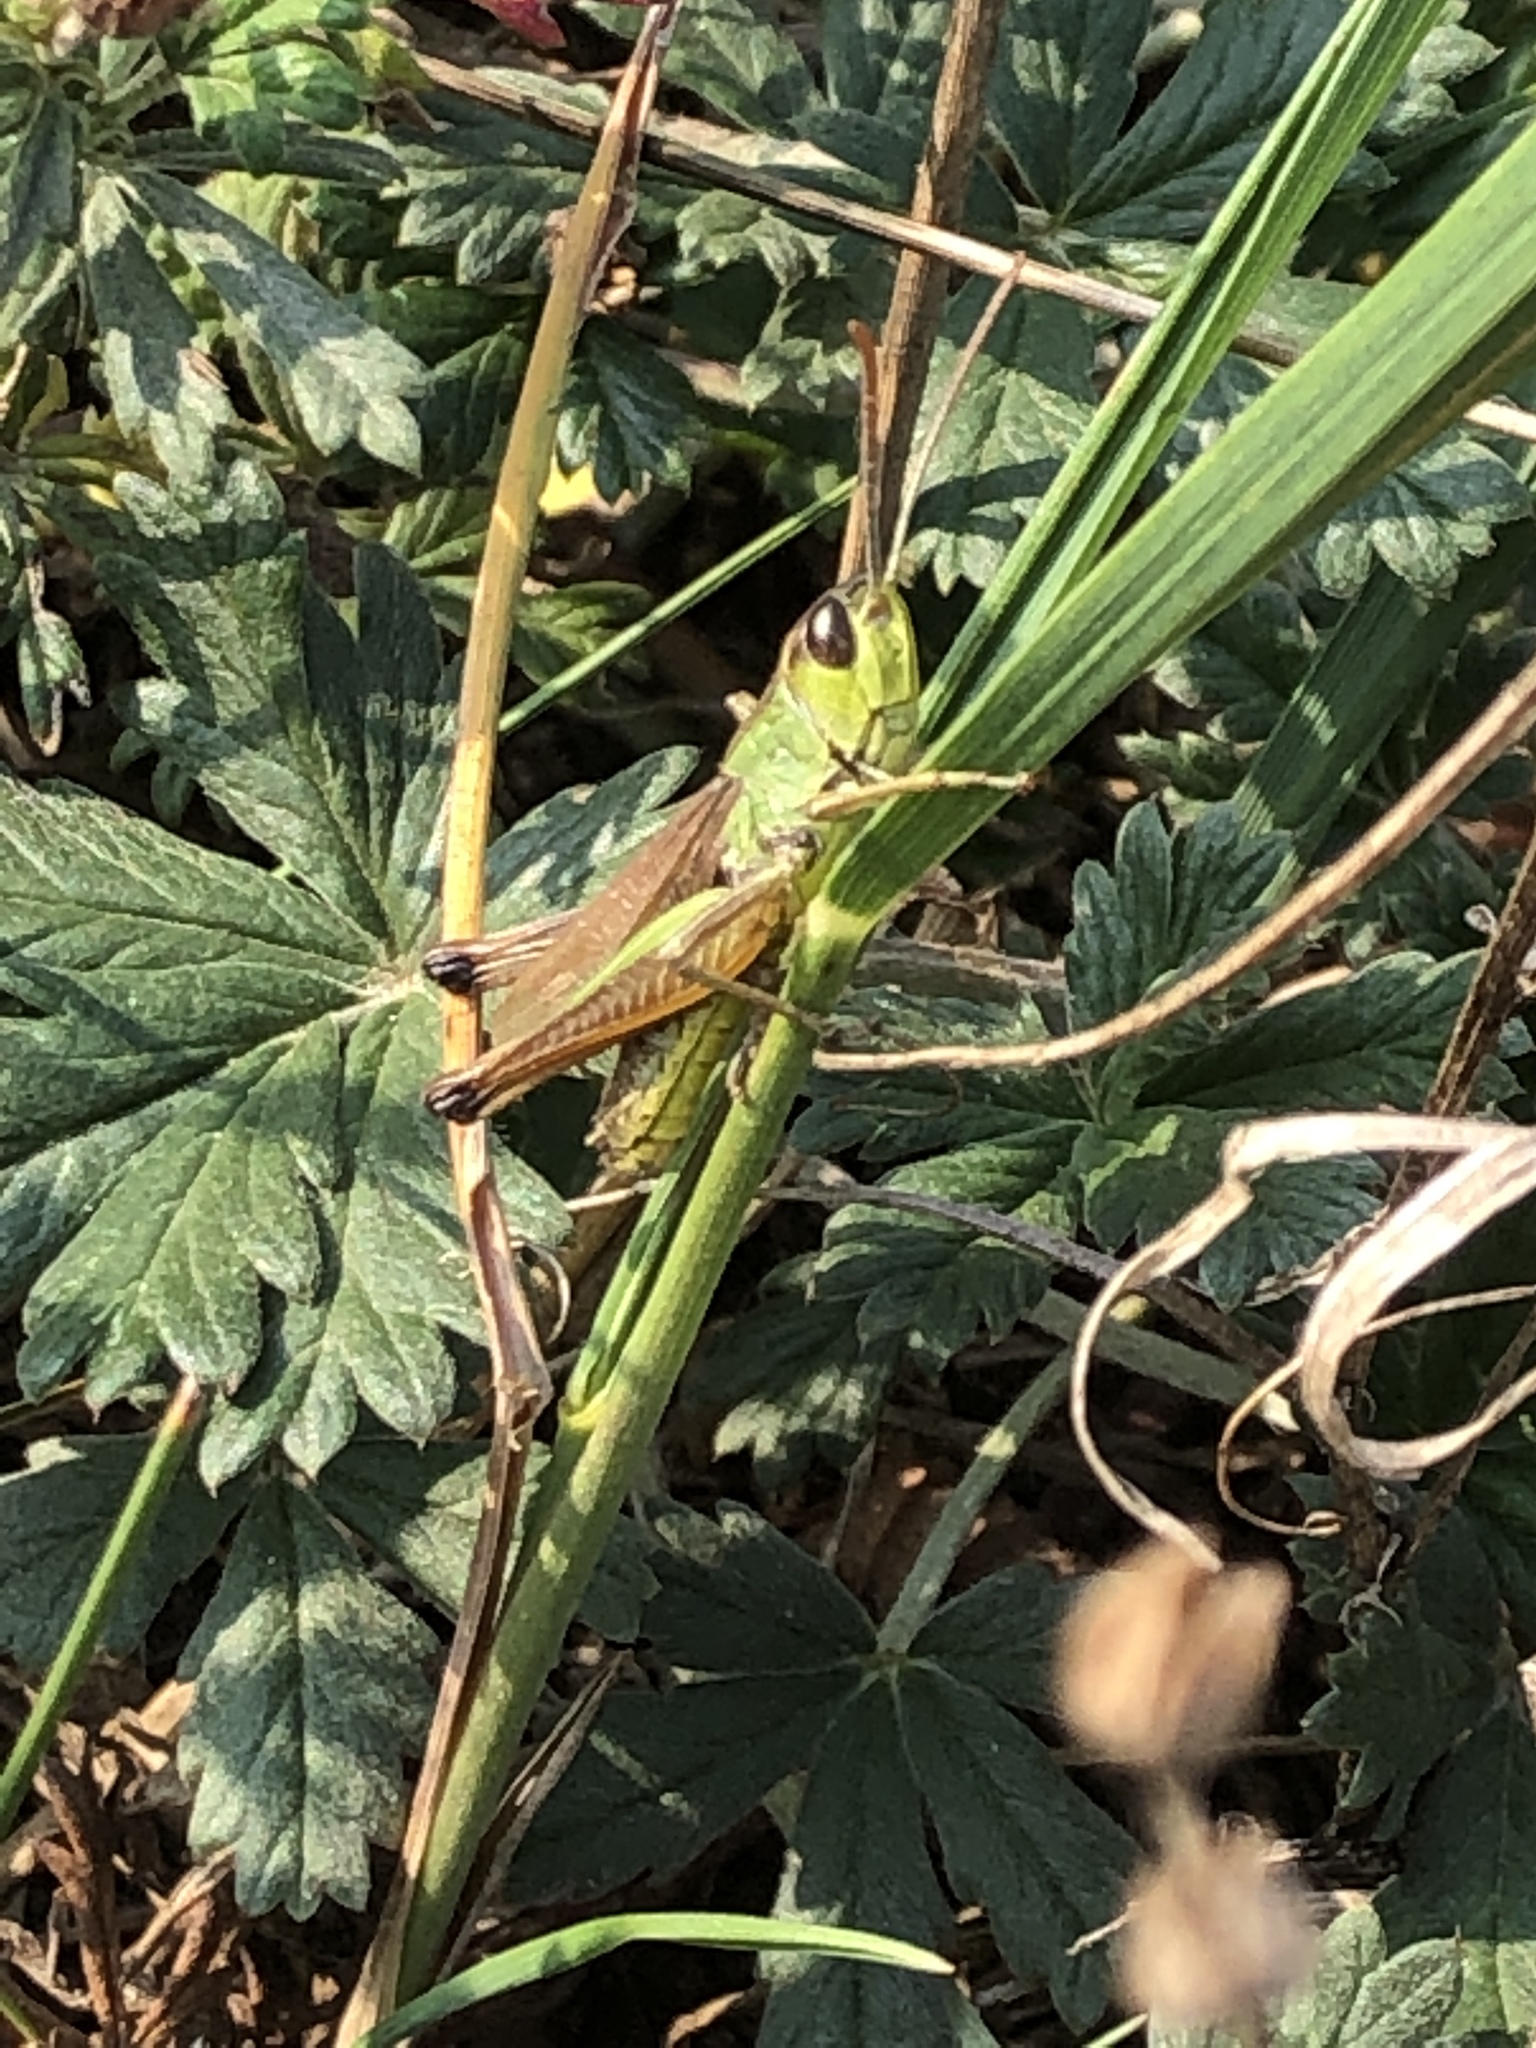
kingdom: Animalia
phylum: Arthropoda
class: Insecta
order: Orthoptera
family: Acrididae
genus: Pseudochorthippus
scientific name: Pseudochorthippus parallelus
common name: Meadow grasshopper
